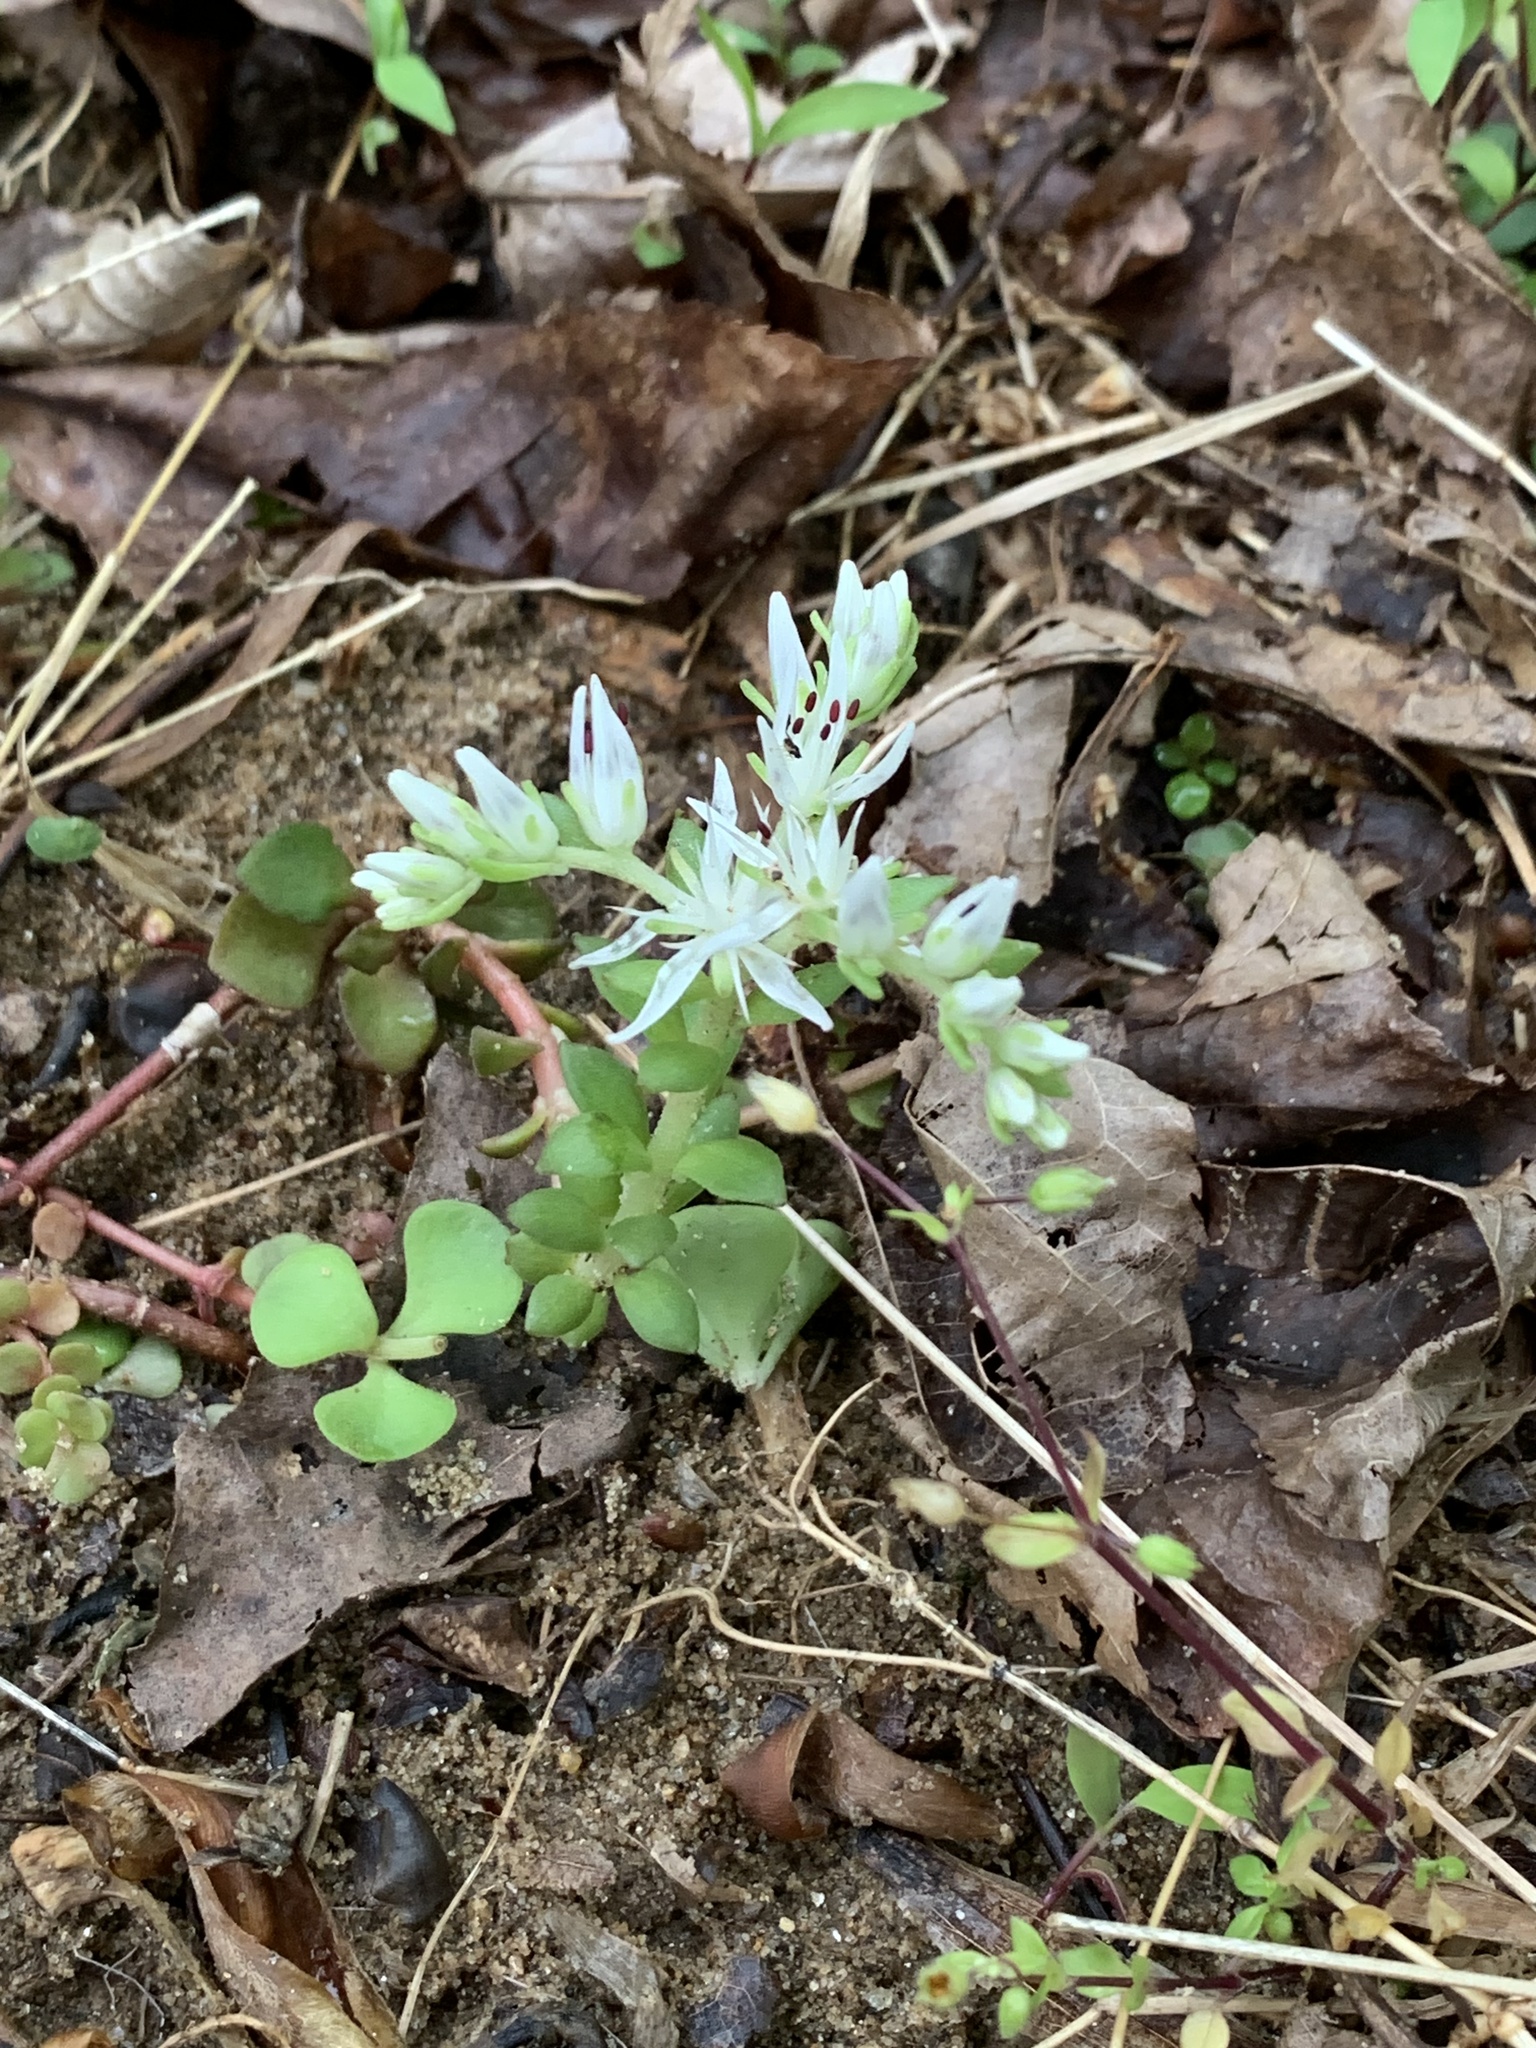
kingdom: Plantae
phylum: Tracheophyta
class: Magnoliopsida
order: Saxifragales
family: Crassulaceae
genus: Sedum
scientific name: Sedum ternatum
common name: Wild stonecrop
